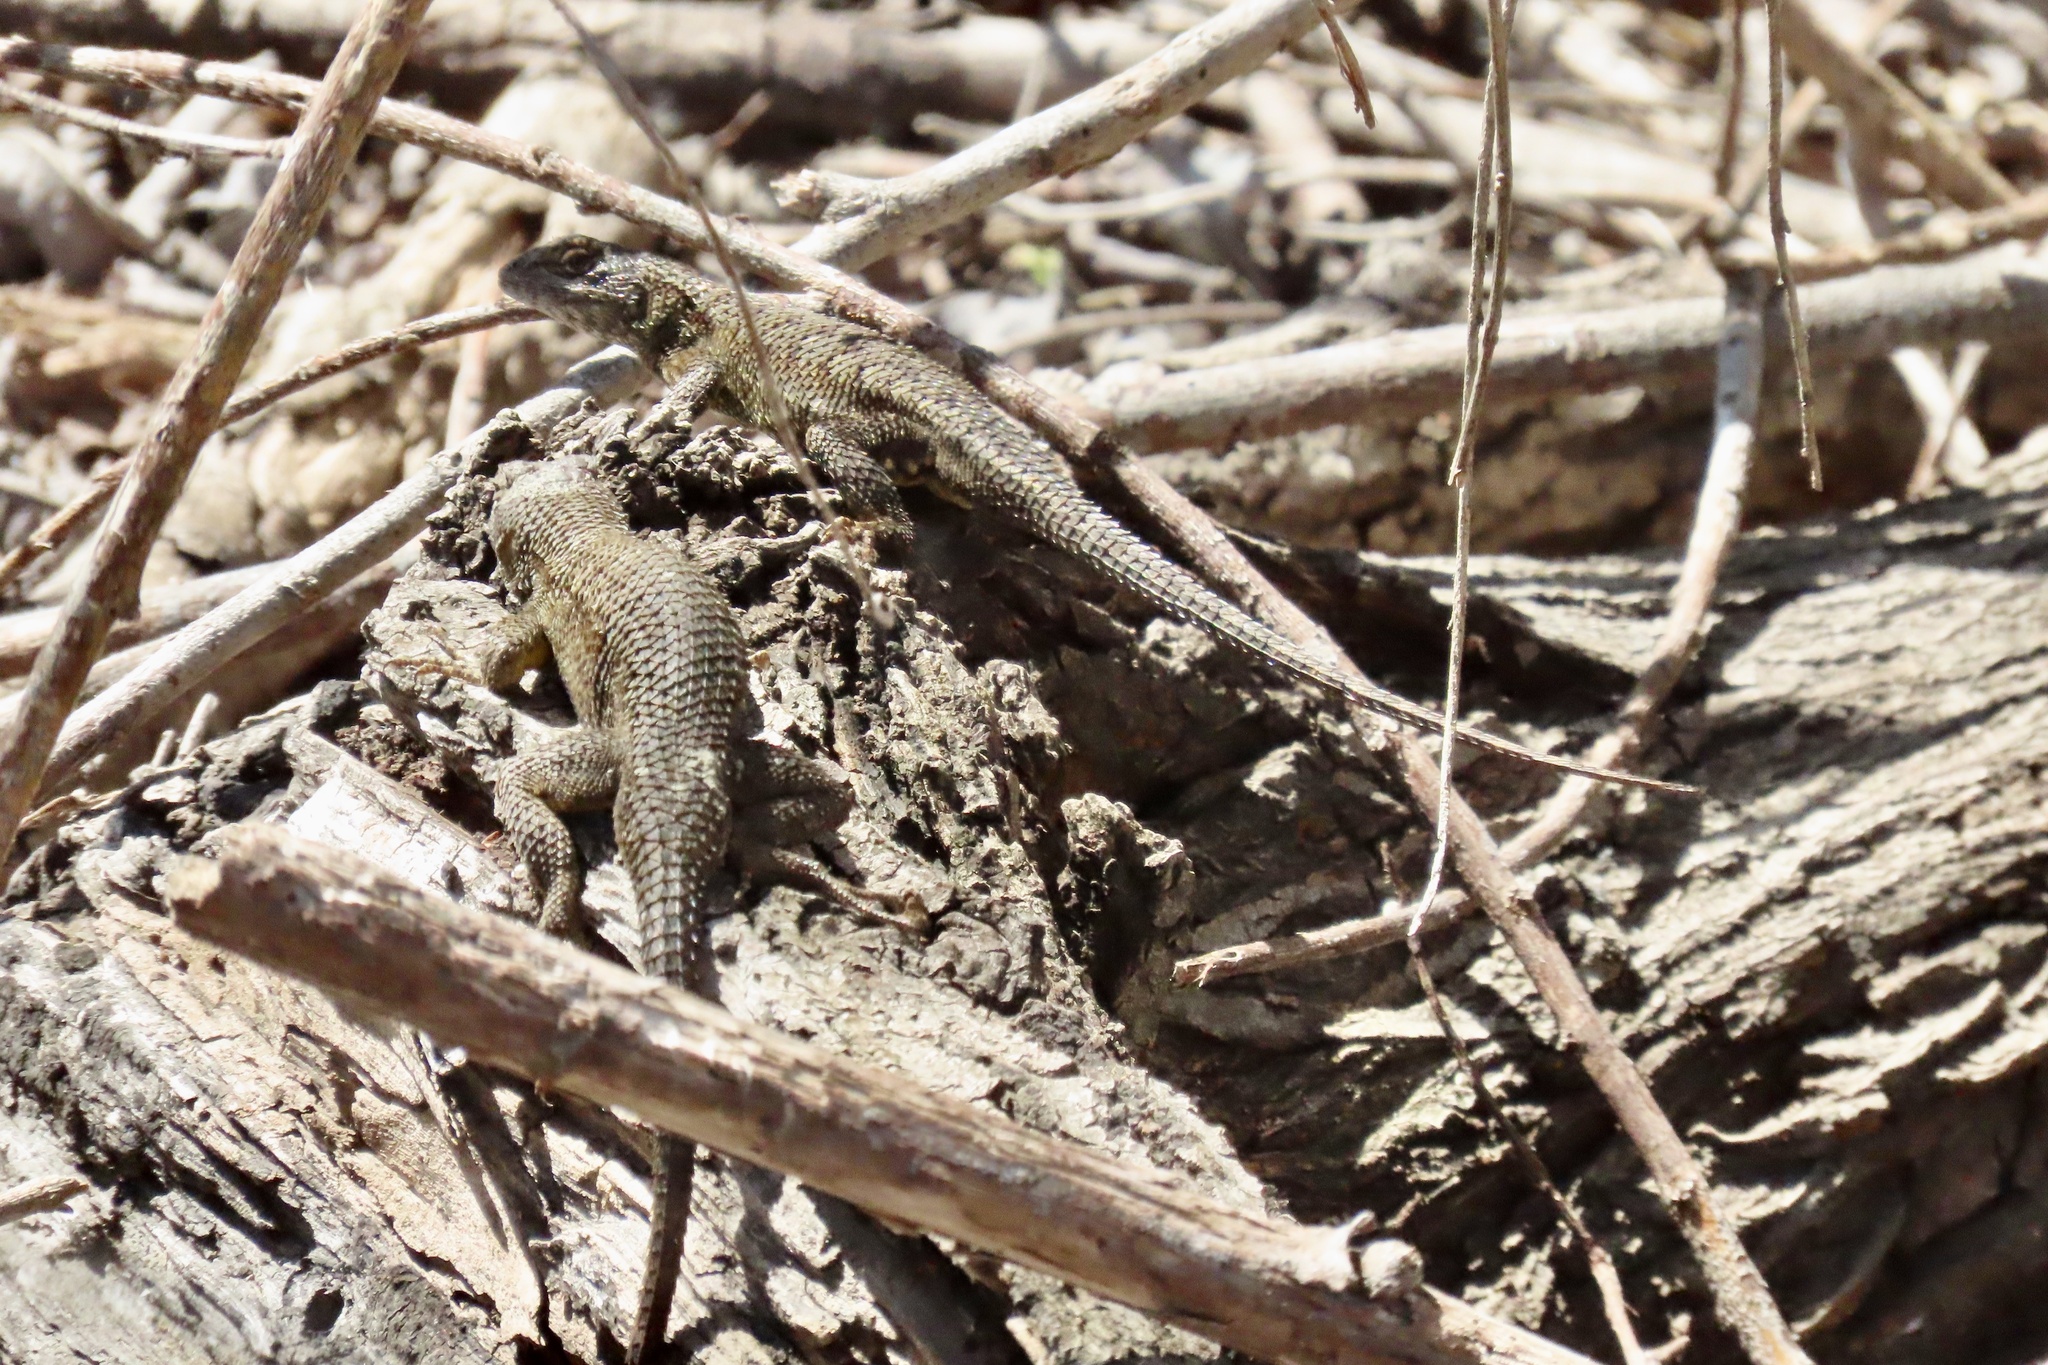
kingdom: Animalia
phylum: Chordata
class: Squamata
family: Phrynosomatidae
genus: Sceloporus
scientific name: Sceloporus occidentalis
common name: Western fence lizard
